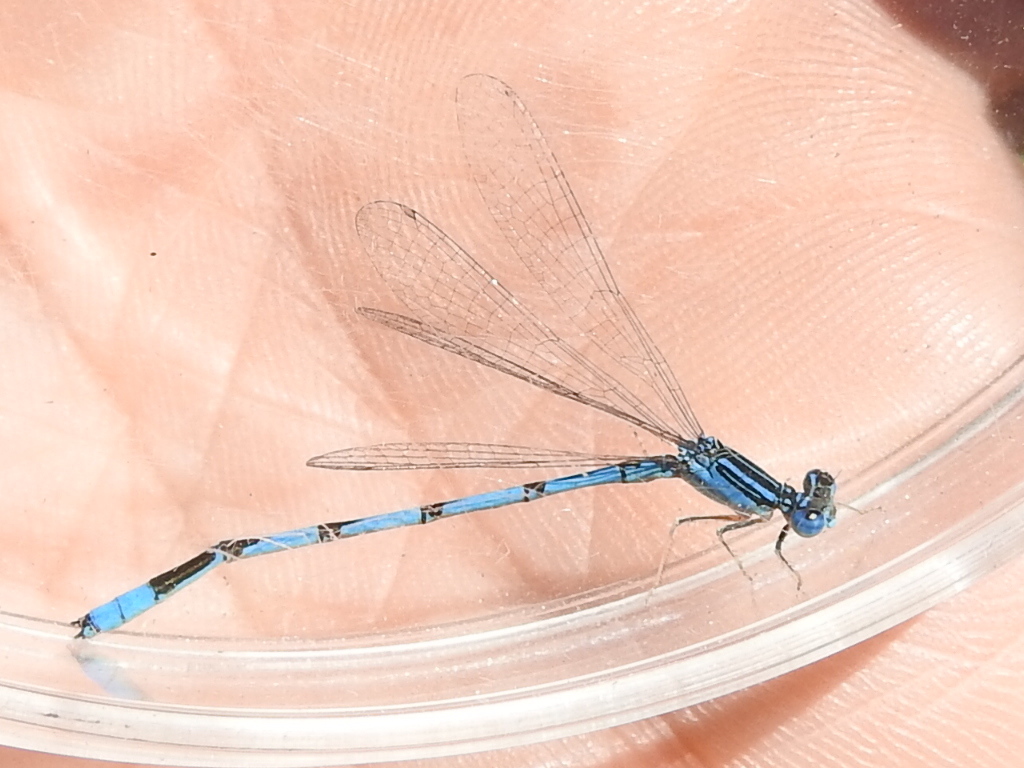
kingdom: Animalia
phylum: Arthropoda
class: Insecta
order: Odonata
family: Coenagrionidae
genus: Enallagma
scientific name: Enallagma basidens
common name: Double-striped bluet
